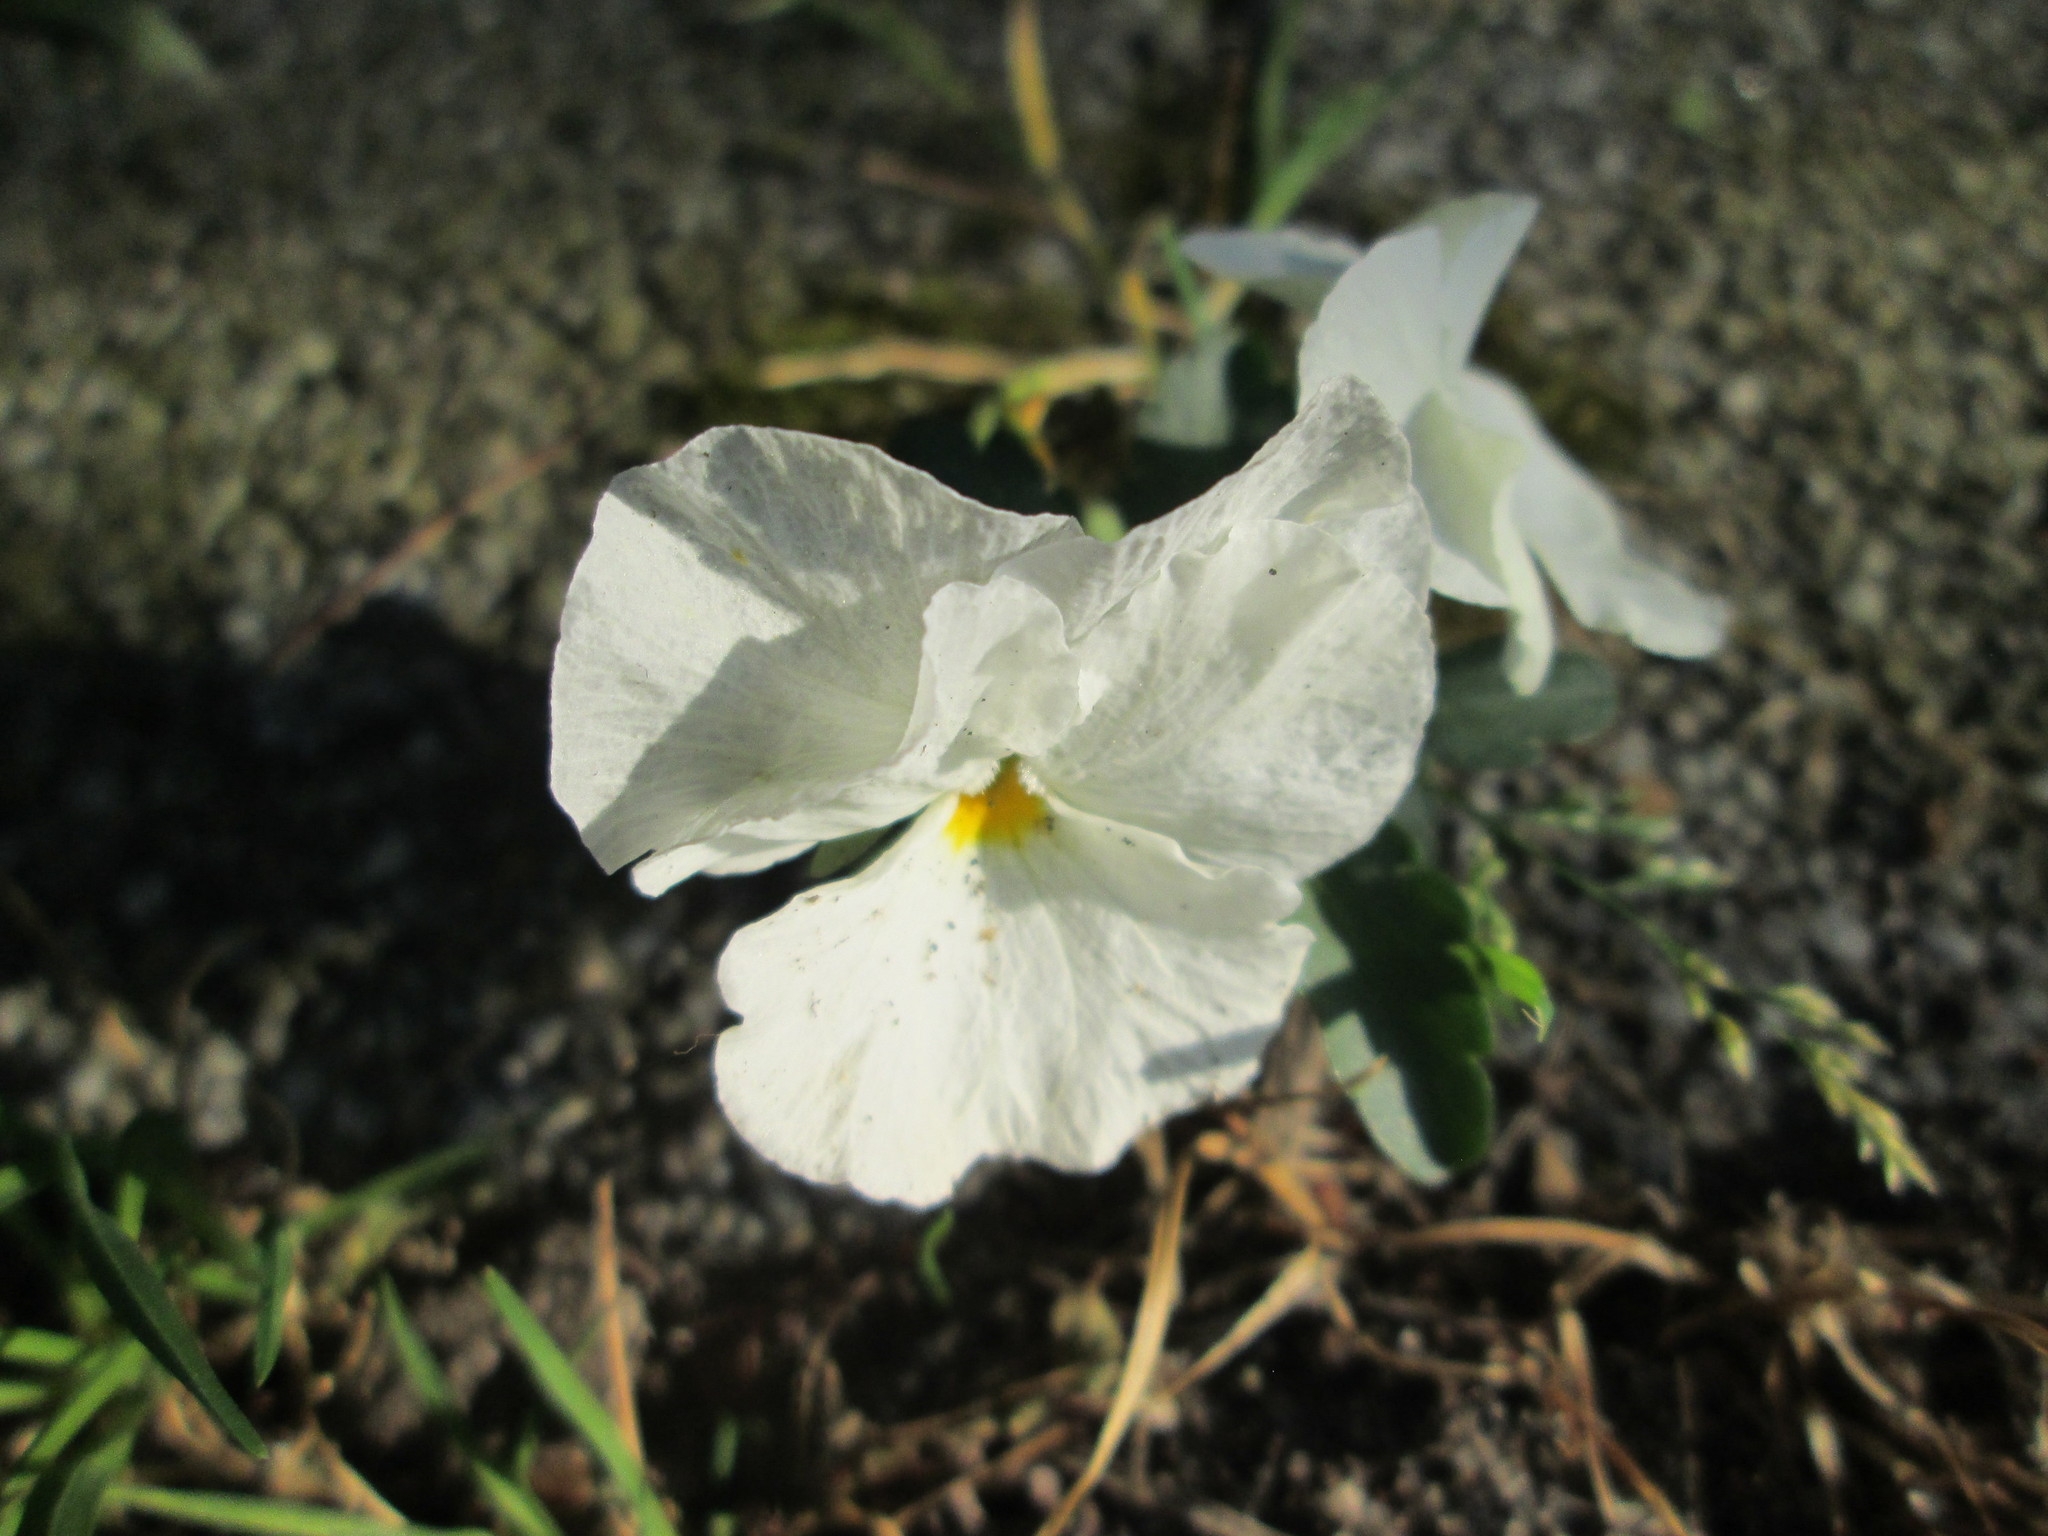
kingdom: Plantae
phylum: Tracheophyta
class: Magnoliopsida
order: Malpighiales
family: Violaceae
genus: Viola
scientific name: Viola wittrockiana
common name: Garden pansy
